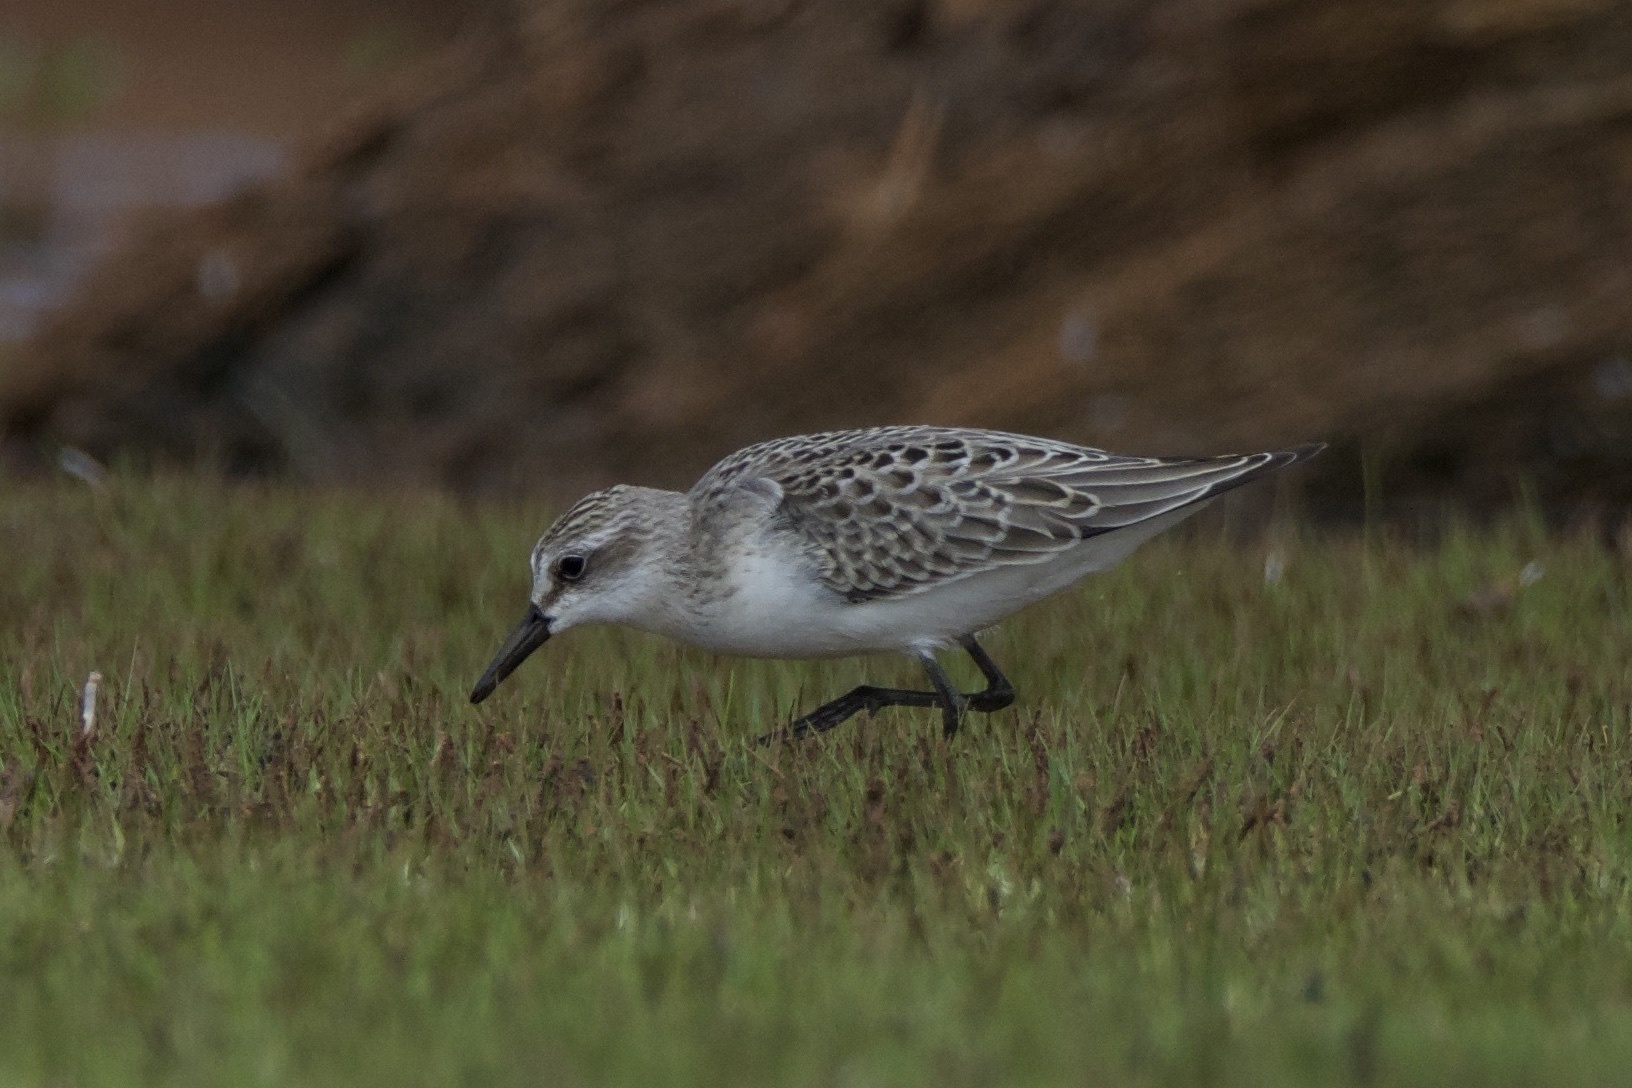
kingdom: Animalia
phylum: Chordata
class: Aves
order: Charadriiformes
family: Scolopacidae
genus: Calidris
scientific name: Calidris pusilla
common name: Semipalmated sandpiper
